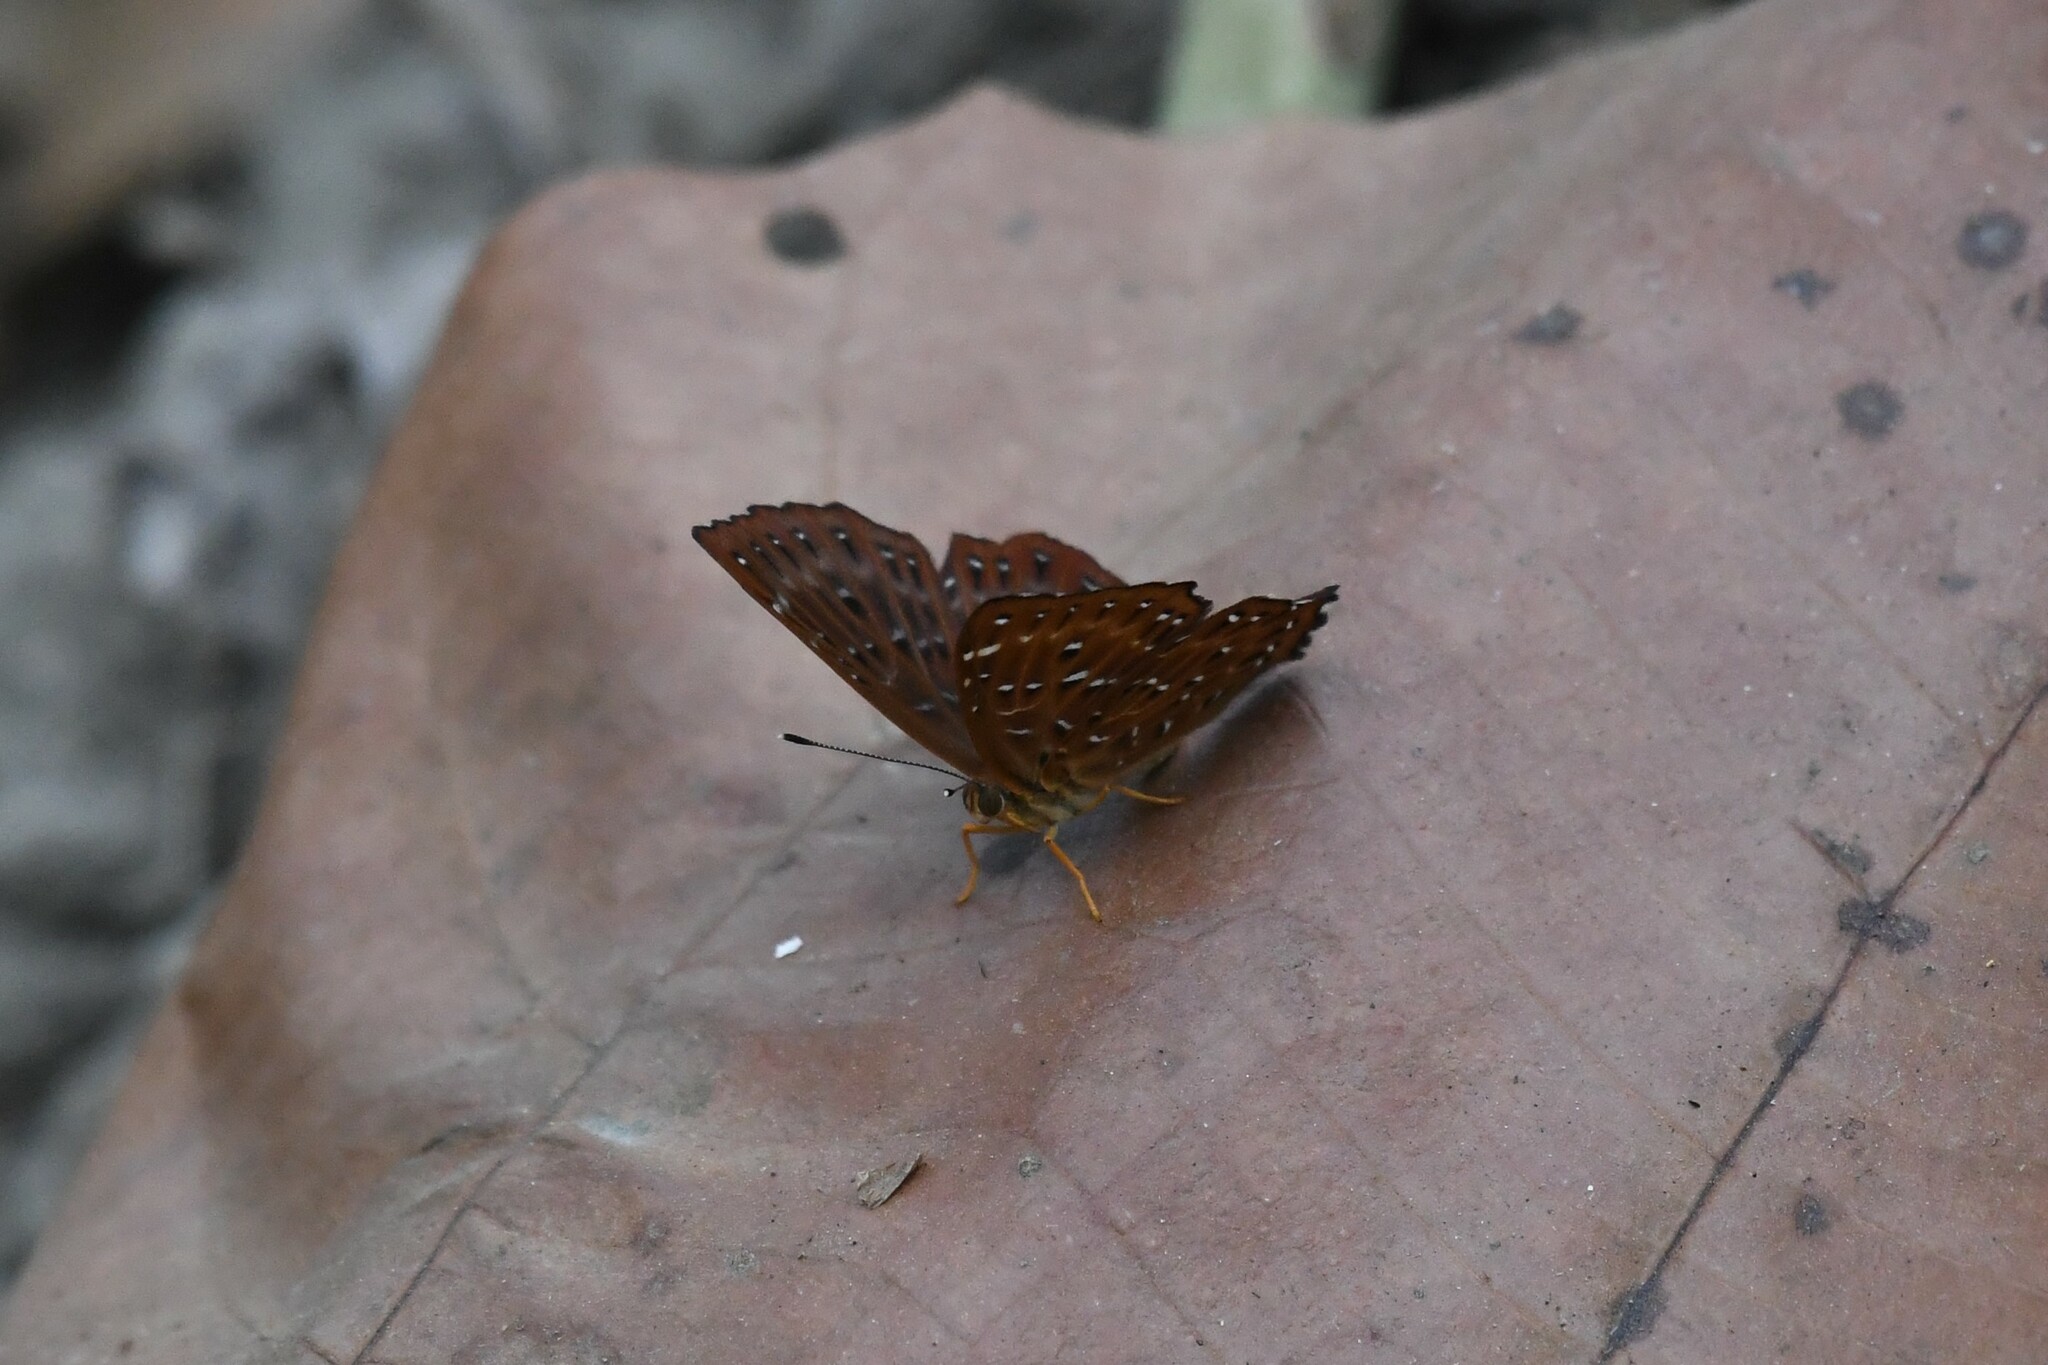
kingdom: Animalia
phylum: Arthropoda
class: Insecta
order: Lepidoptera
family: Riodinidae
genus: Zemeros
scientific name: Zemeros flegyas
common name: Punchinello
